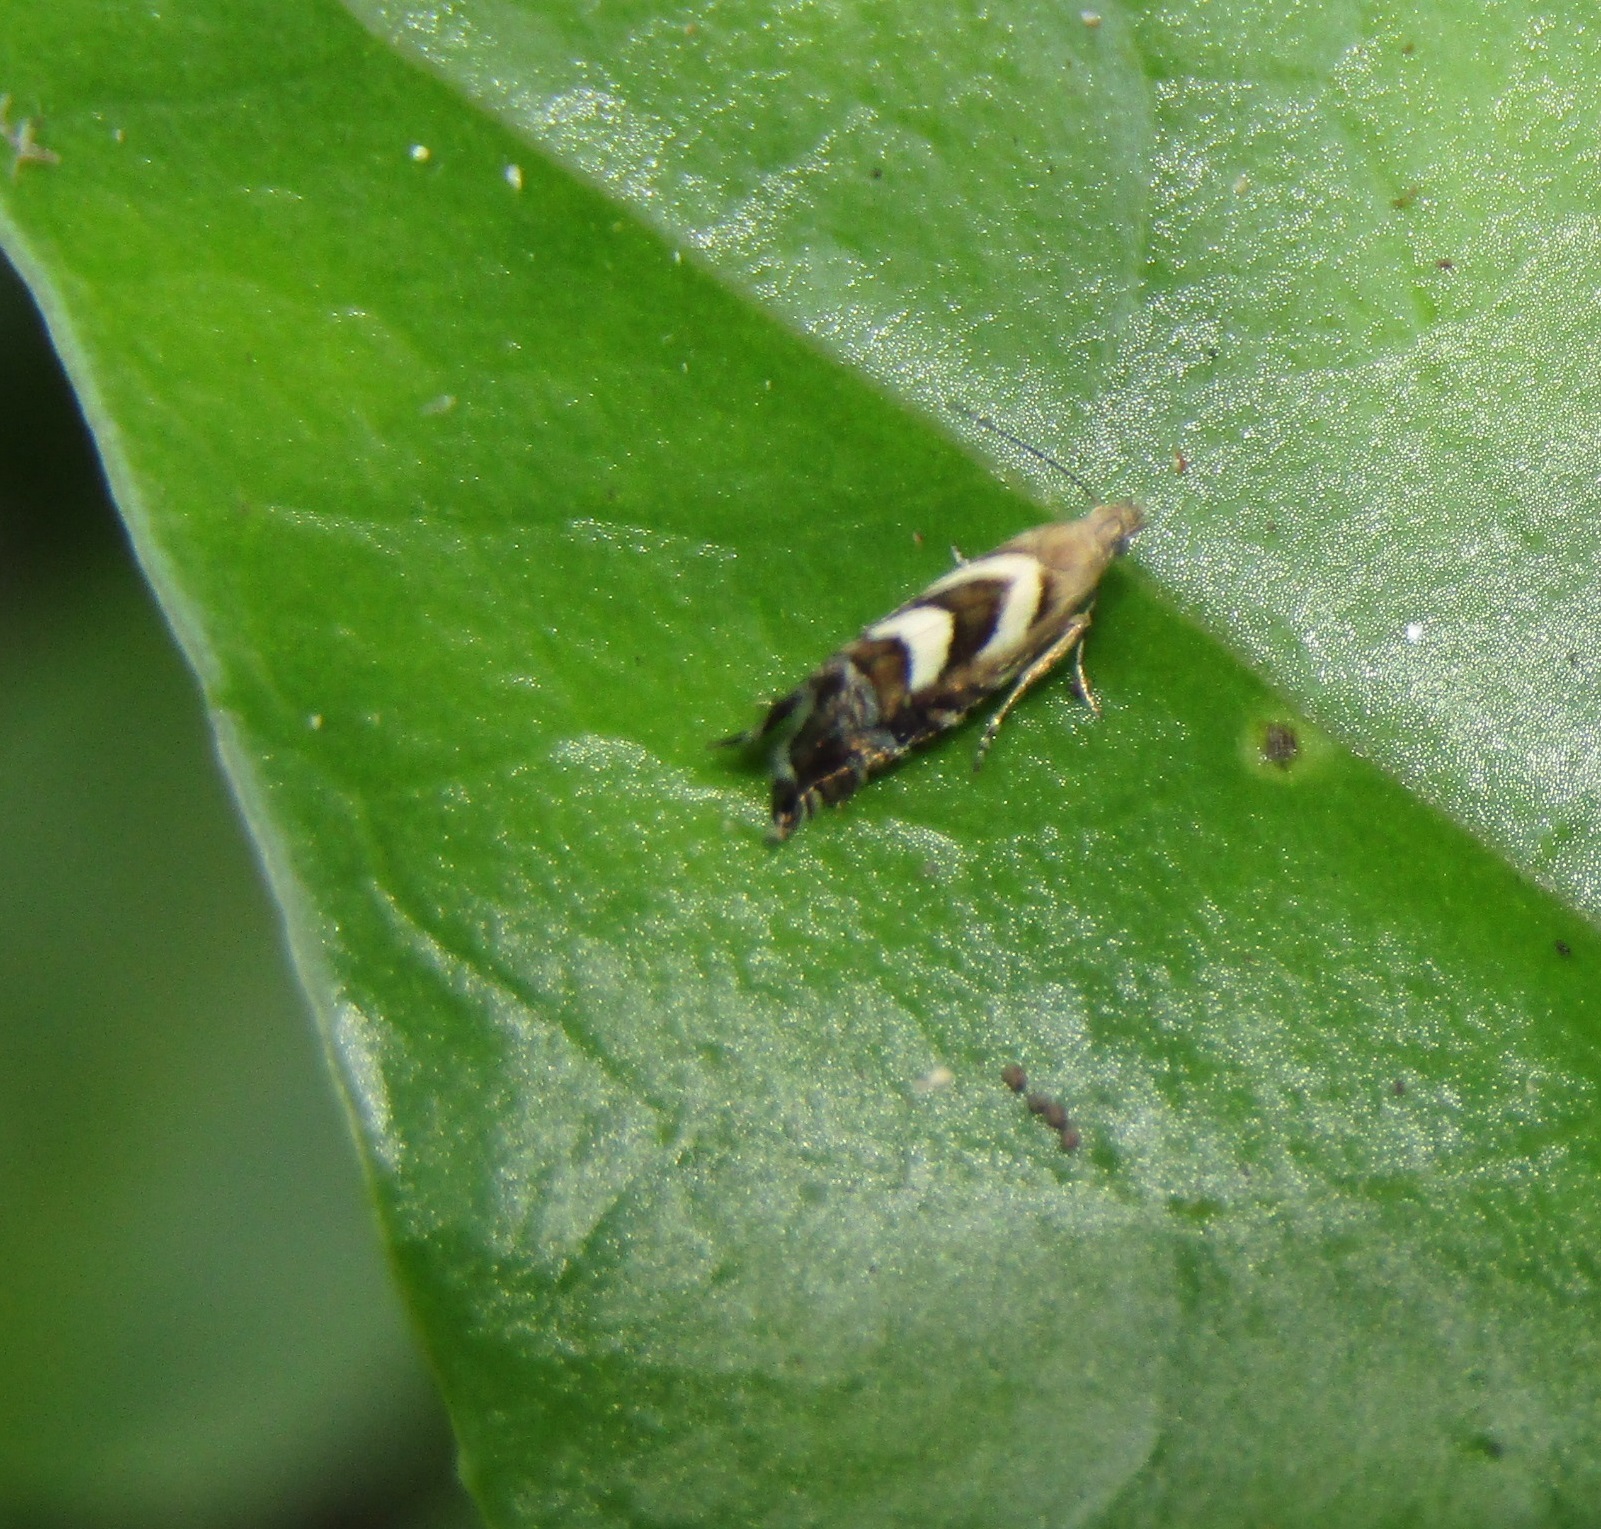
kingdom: Animalia
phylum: Arthropoda
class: Insecta
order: Lepidoptera
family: Glyphipterigidae
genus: Glyphipterix
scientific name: Glyphipterix asteronota
